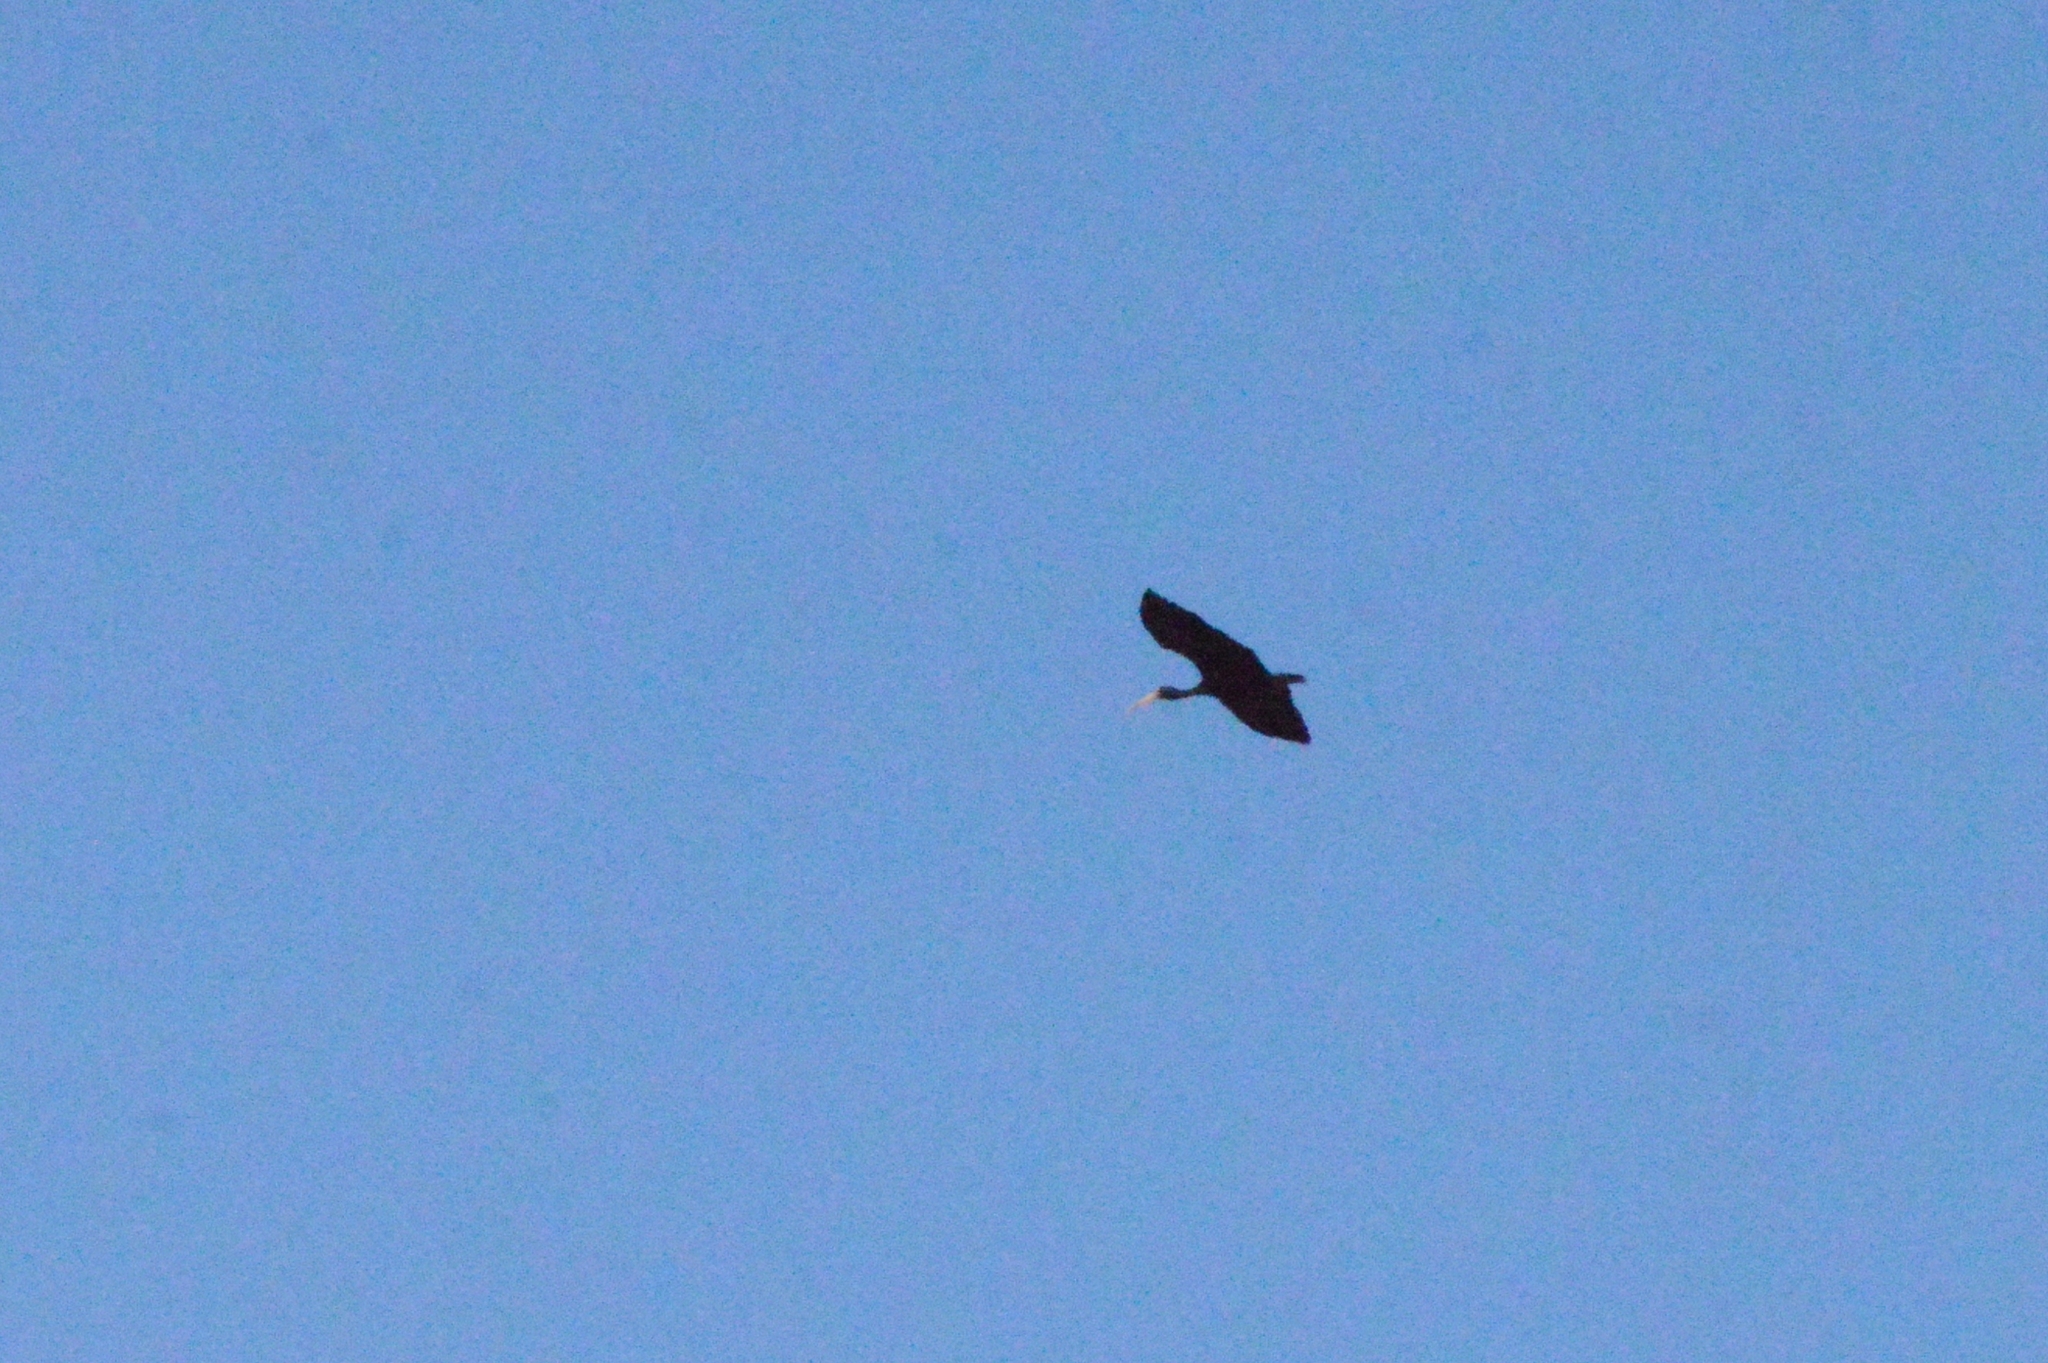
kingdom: Animalia
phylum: Chordata
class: Aves
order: Pelecaniformes
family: Threskiornithidae
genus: Phimosus
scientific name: Phimosus infuscatus
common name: Bare-faced ibis
